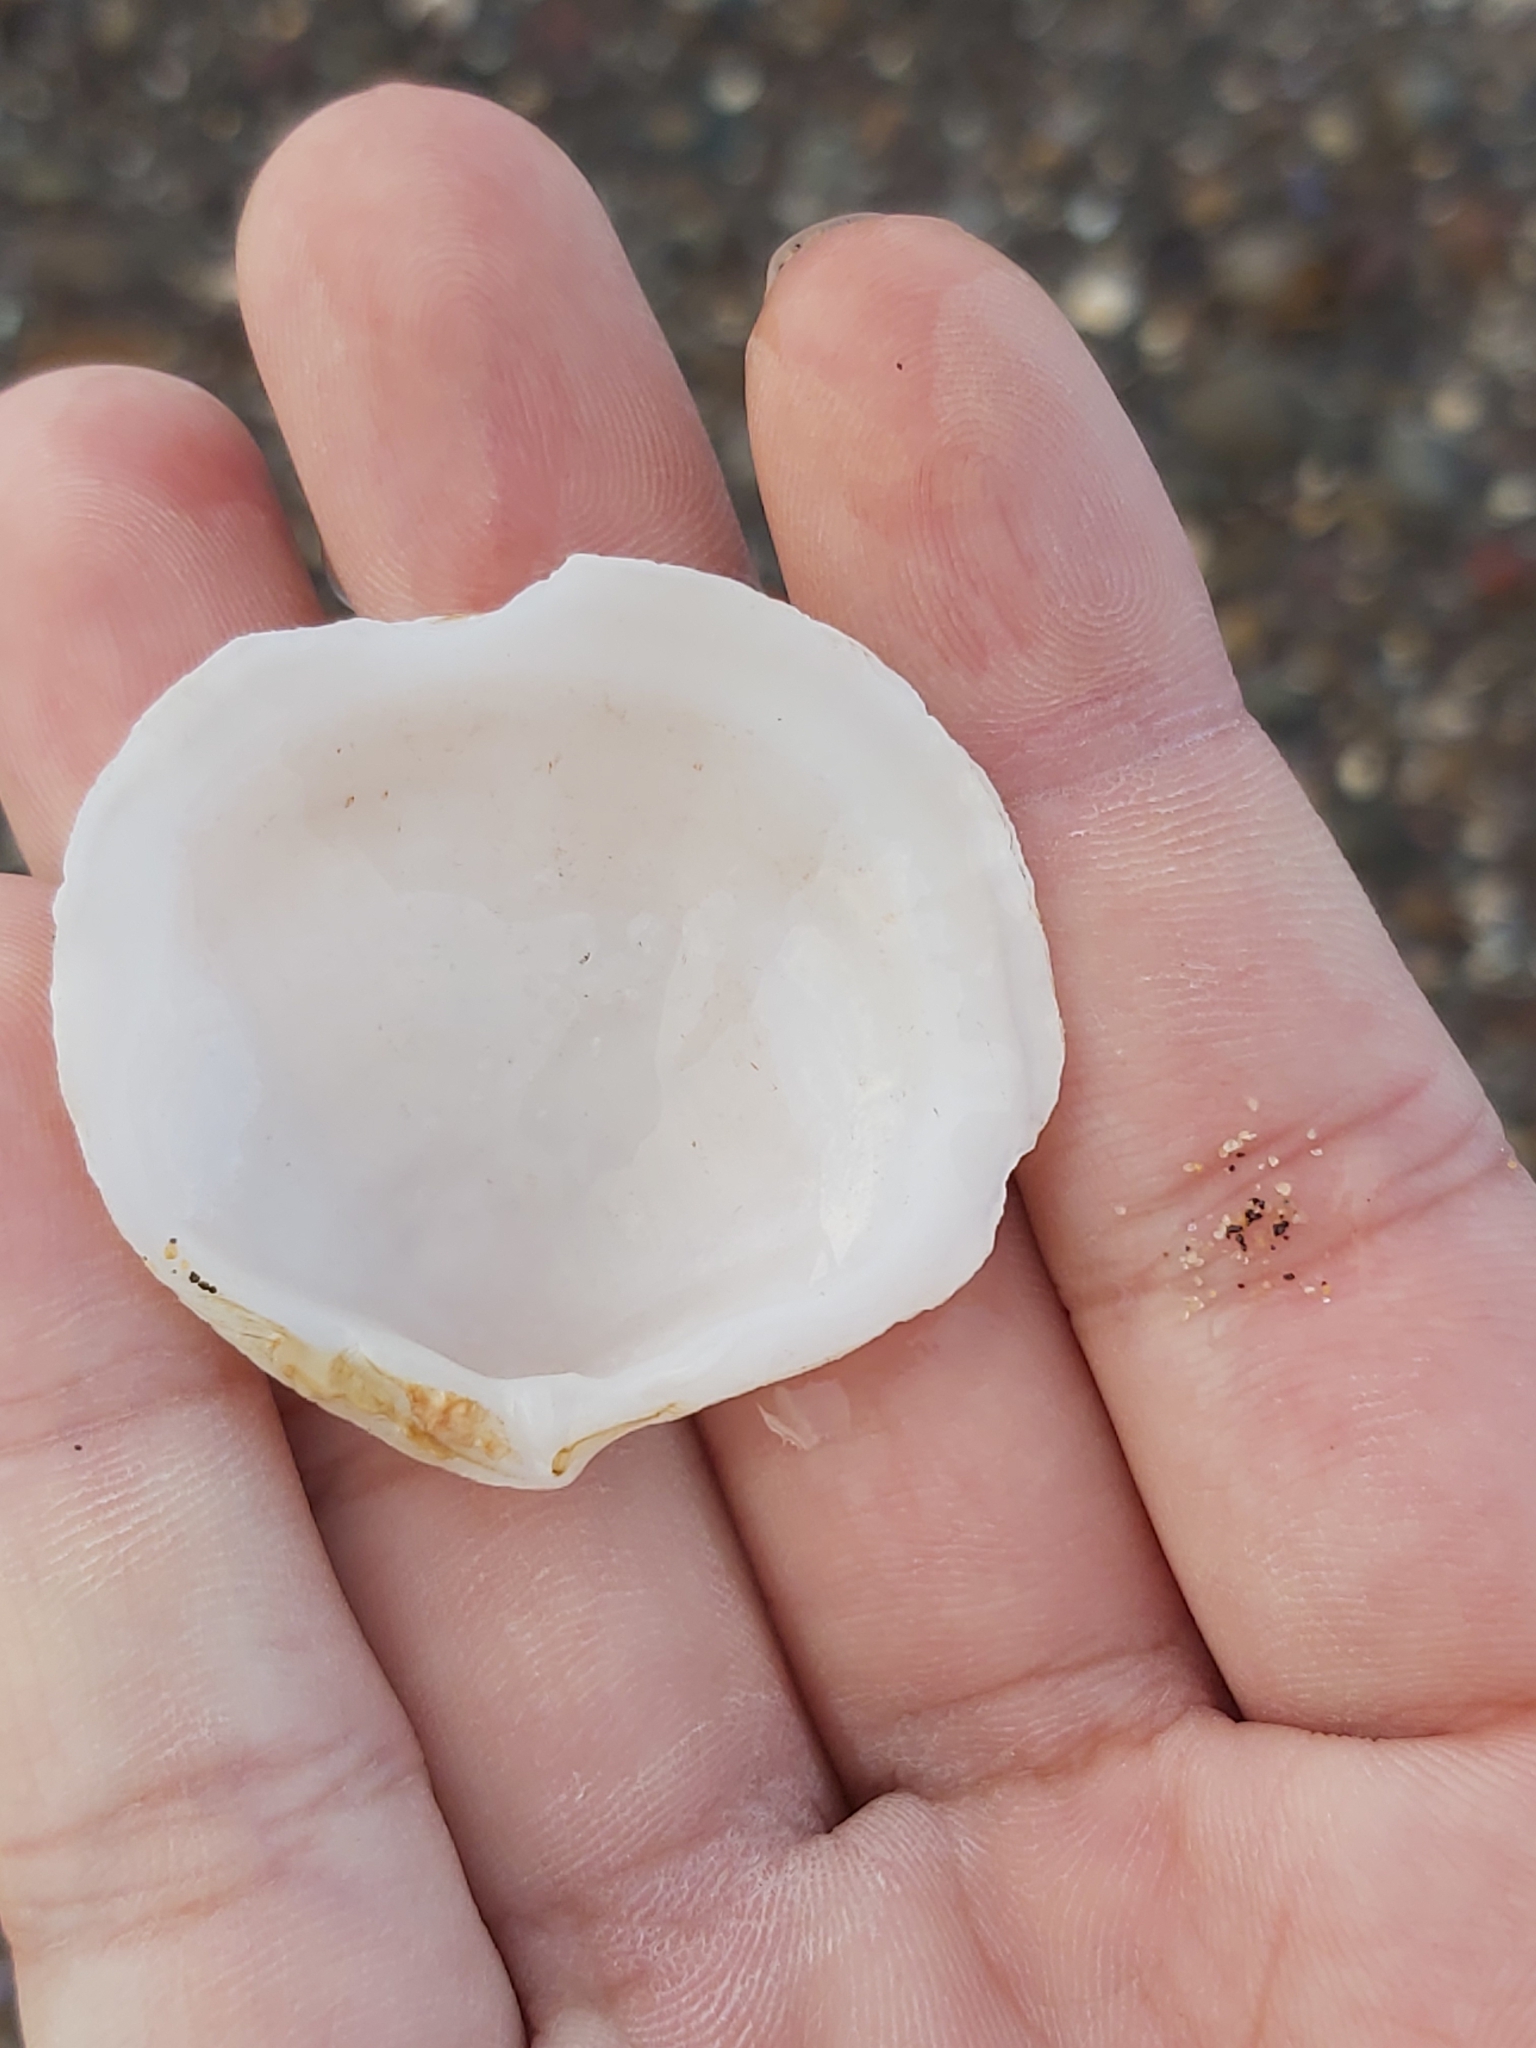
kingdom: Animalia
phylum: Mollusca
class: Bivalvia
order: Lucinida
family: Lucinidae
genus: Codakia
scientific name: Codakia rugifera
